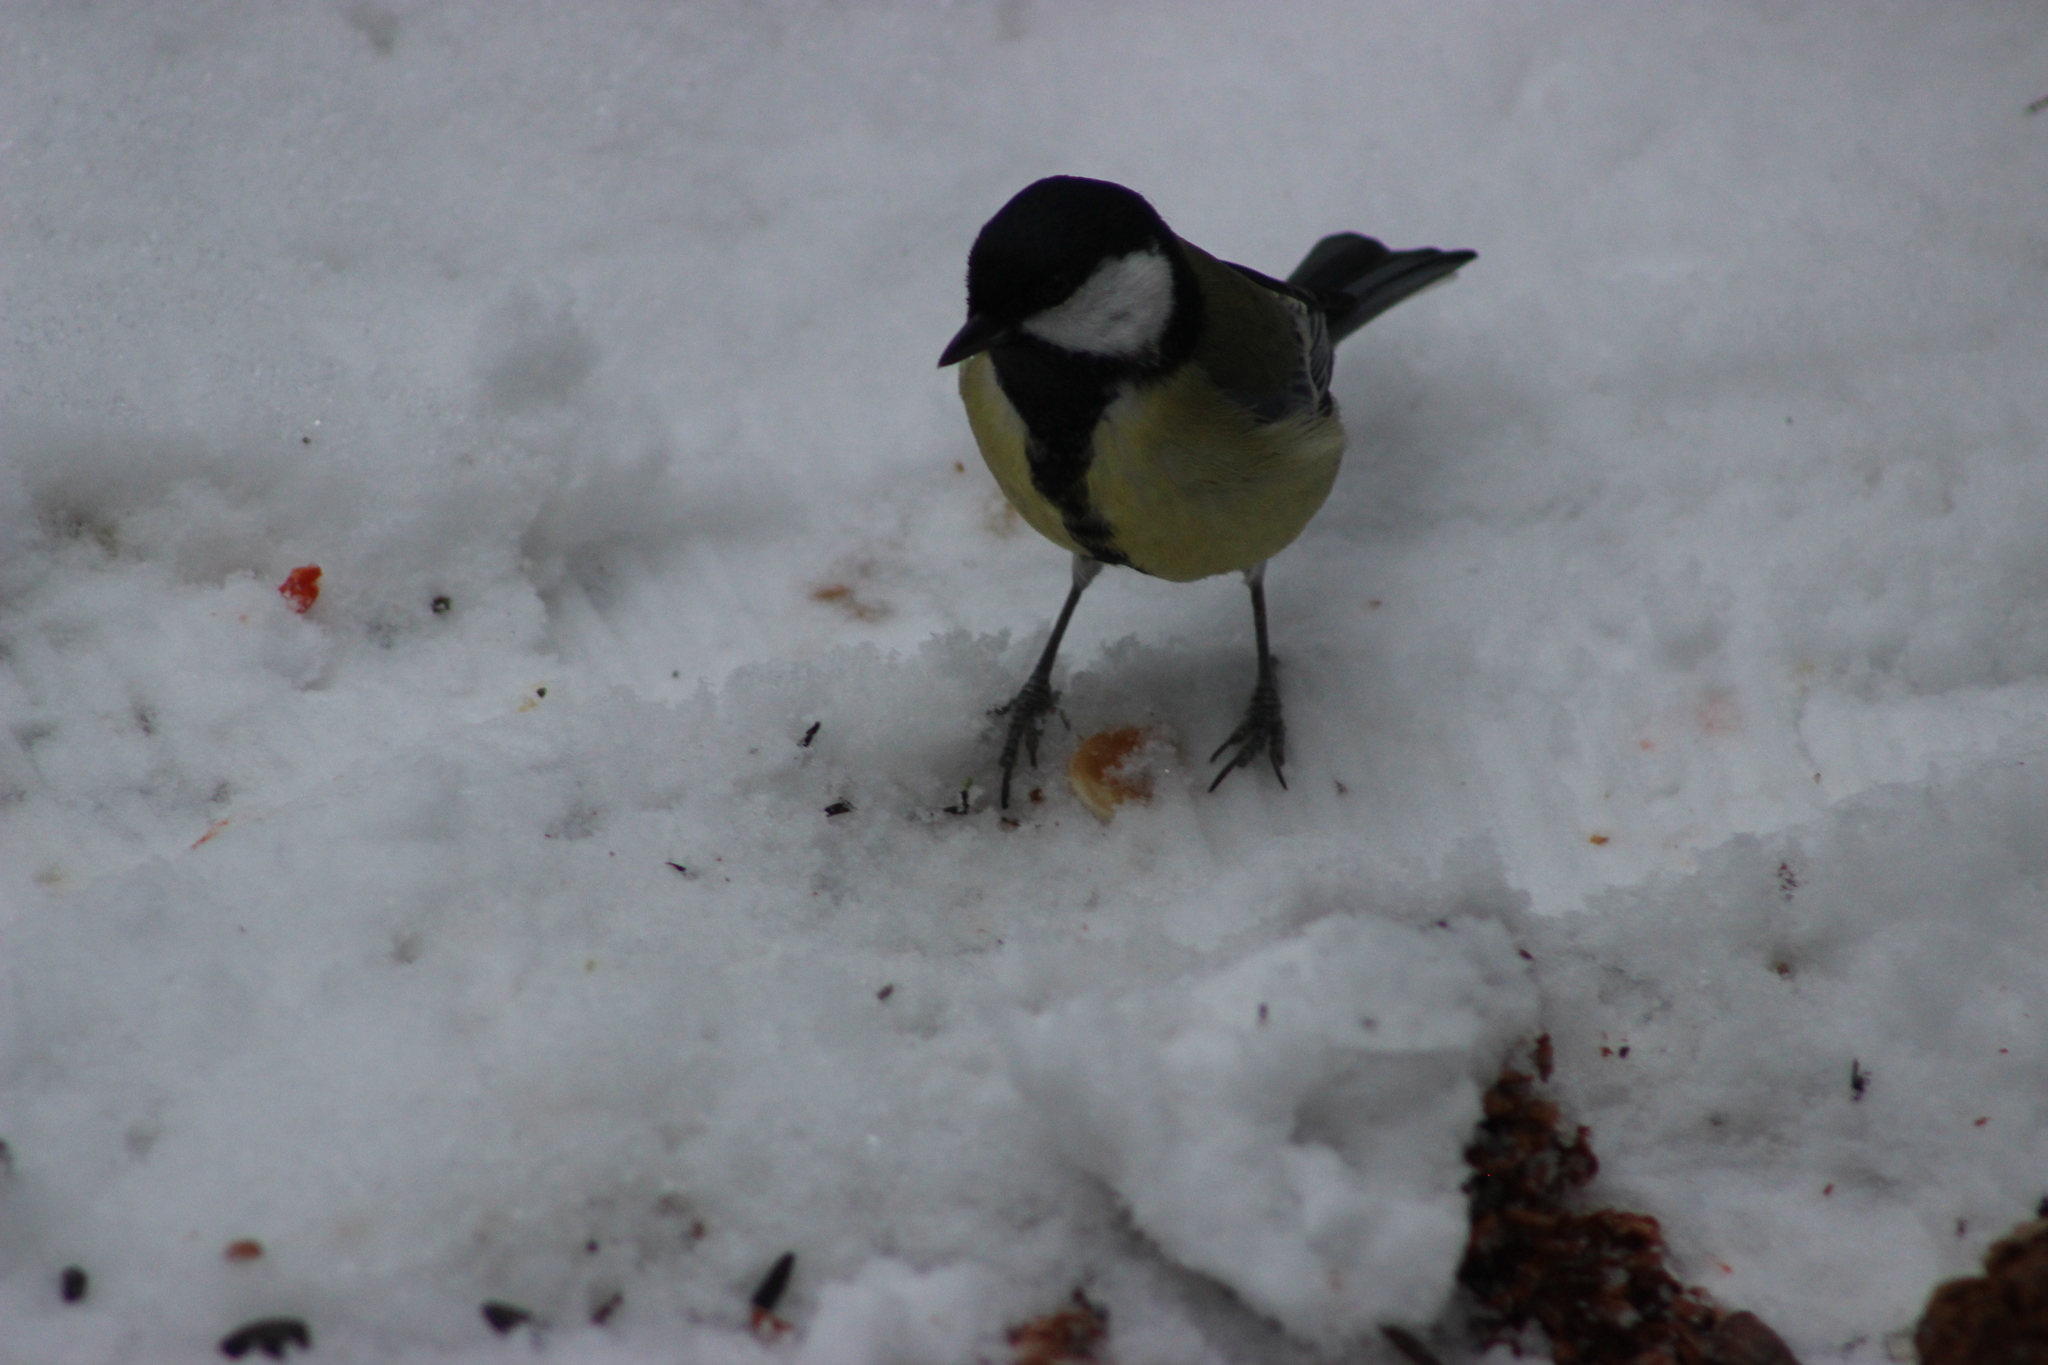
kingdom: Animalia
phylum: Chordata
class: Aves
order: Passeriformes
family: Paridae
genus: Parus
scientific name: Parus major
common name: Great tit
